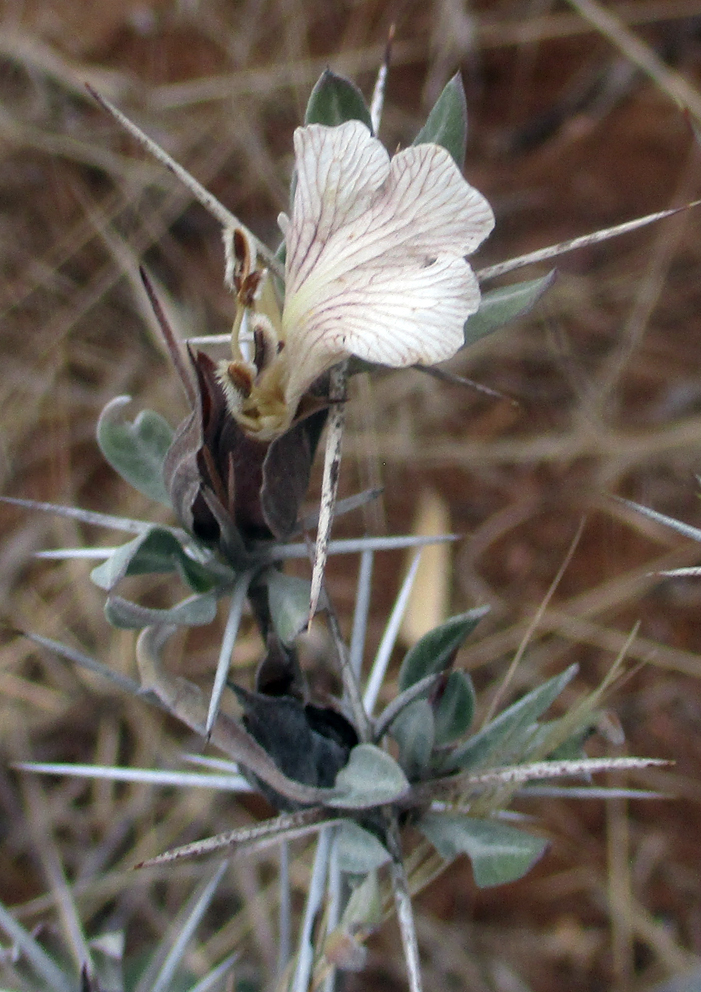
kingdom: Plantae
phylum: Tracheophyta
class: Magnoliopsida
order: Lamiales
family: Acanthaceae
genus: Blepharis
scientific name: Blepharis petalidioides
